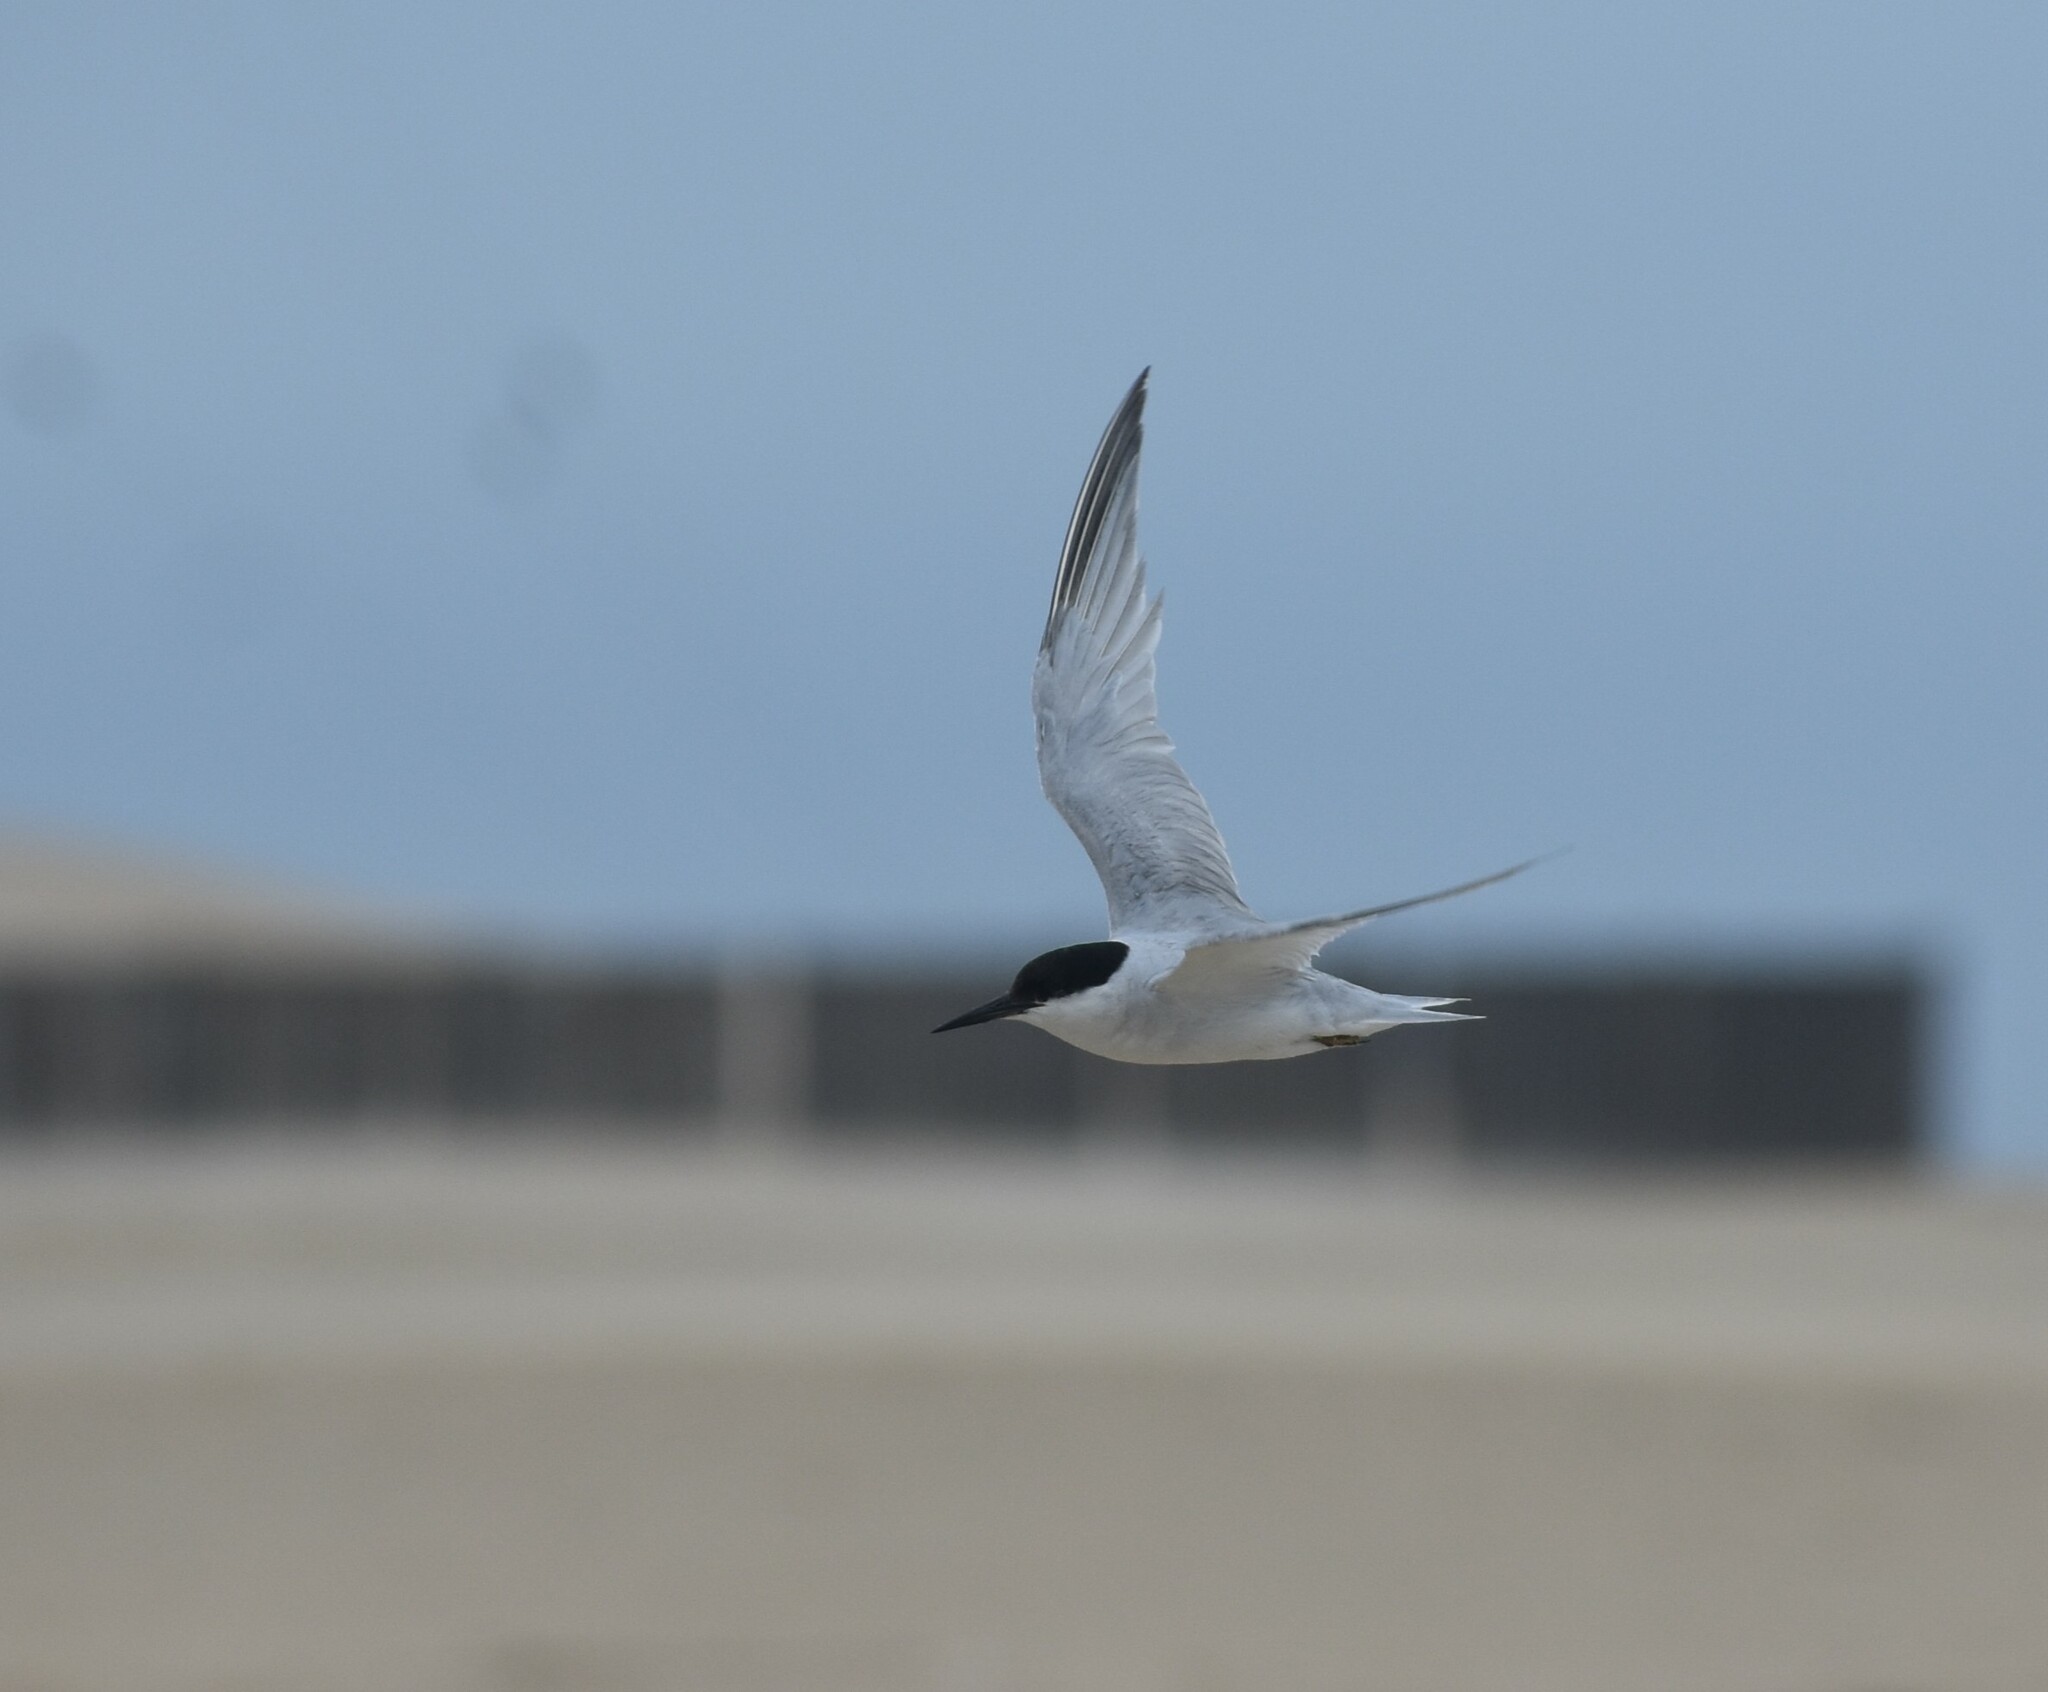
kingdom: Animalia
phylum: Chordata
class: Aves
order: Charadriiformes
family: Laridae
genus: Sternula
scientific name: Sternula balaenarum
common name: Damara tern
